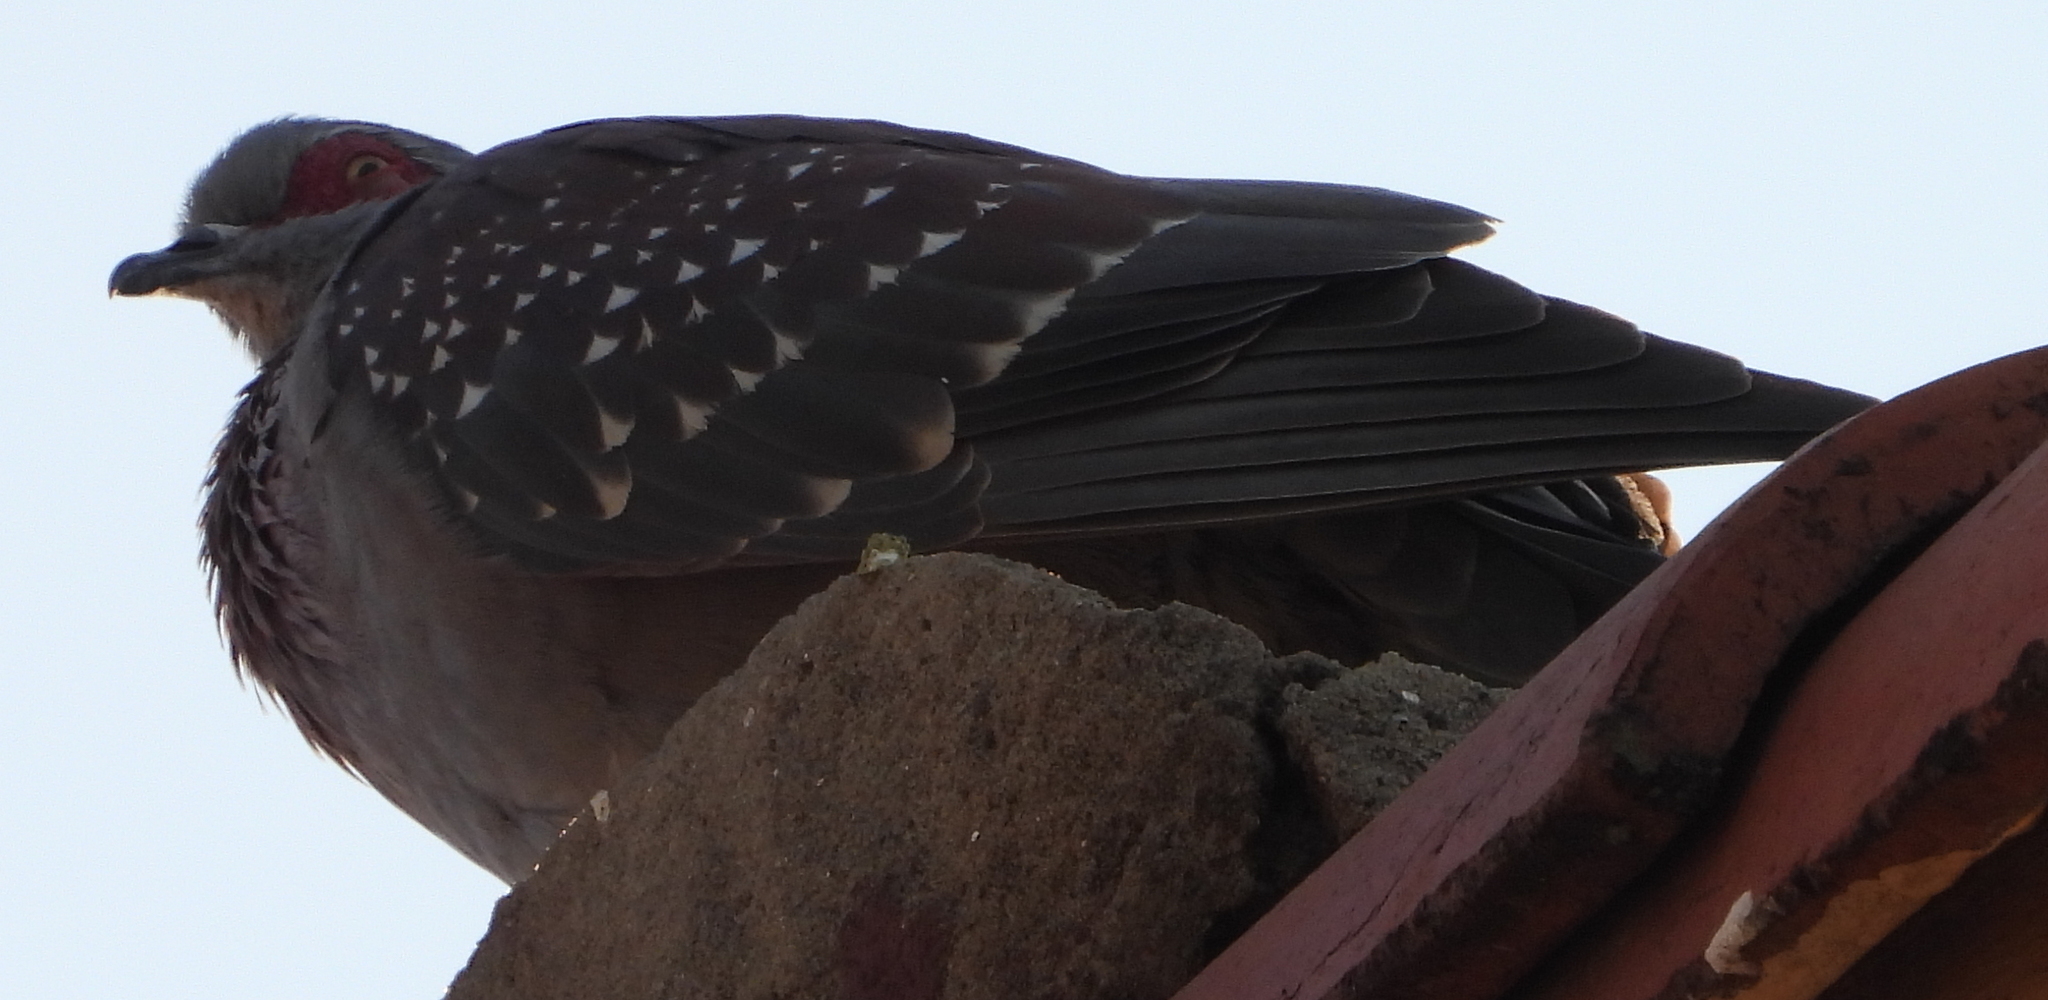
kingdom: Animalia
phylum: Chordata
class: Aves
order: Columbiformes
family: Columbidae
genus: Columba
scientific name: Columba guinea
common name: Speckled pigeon
